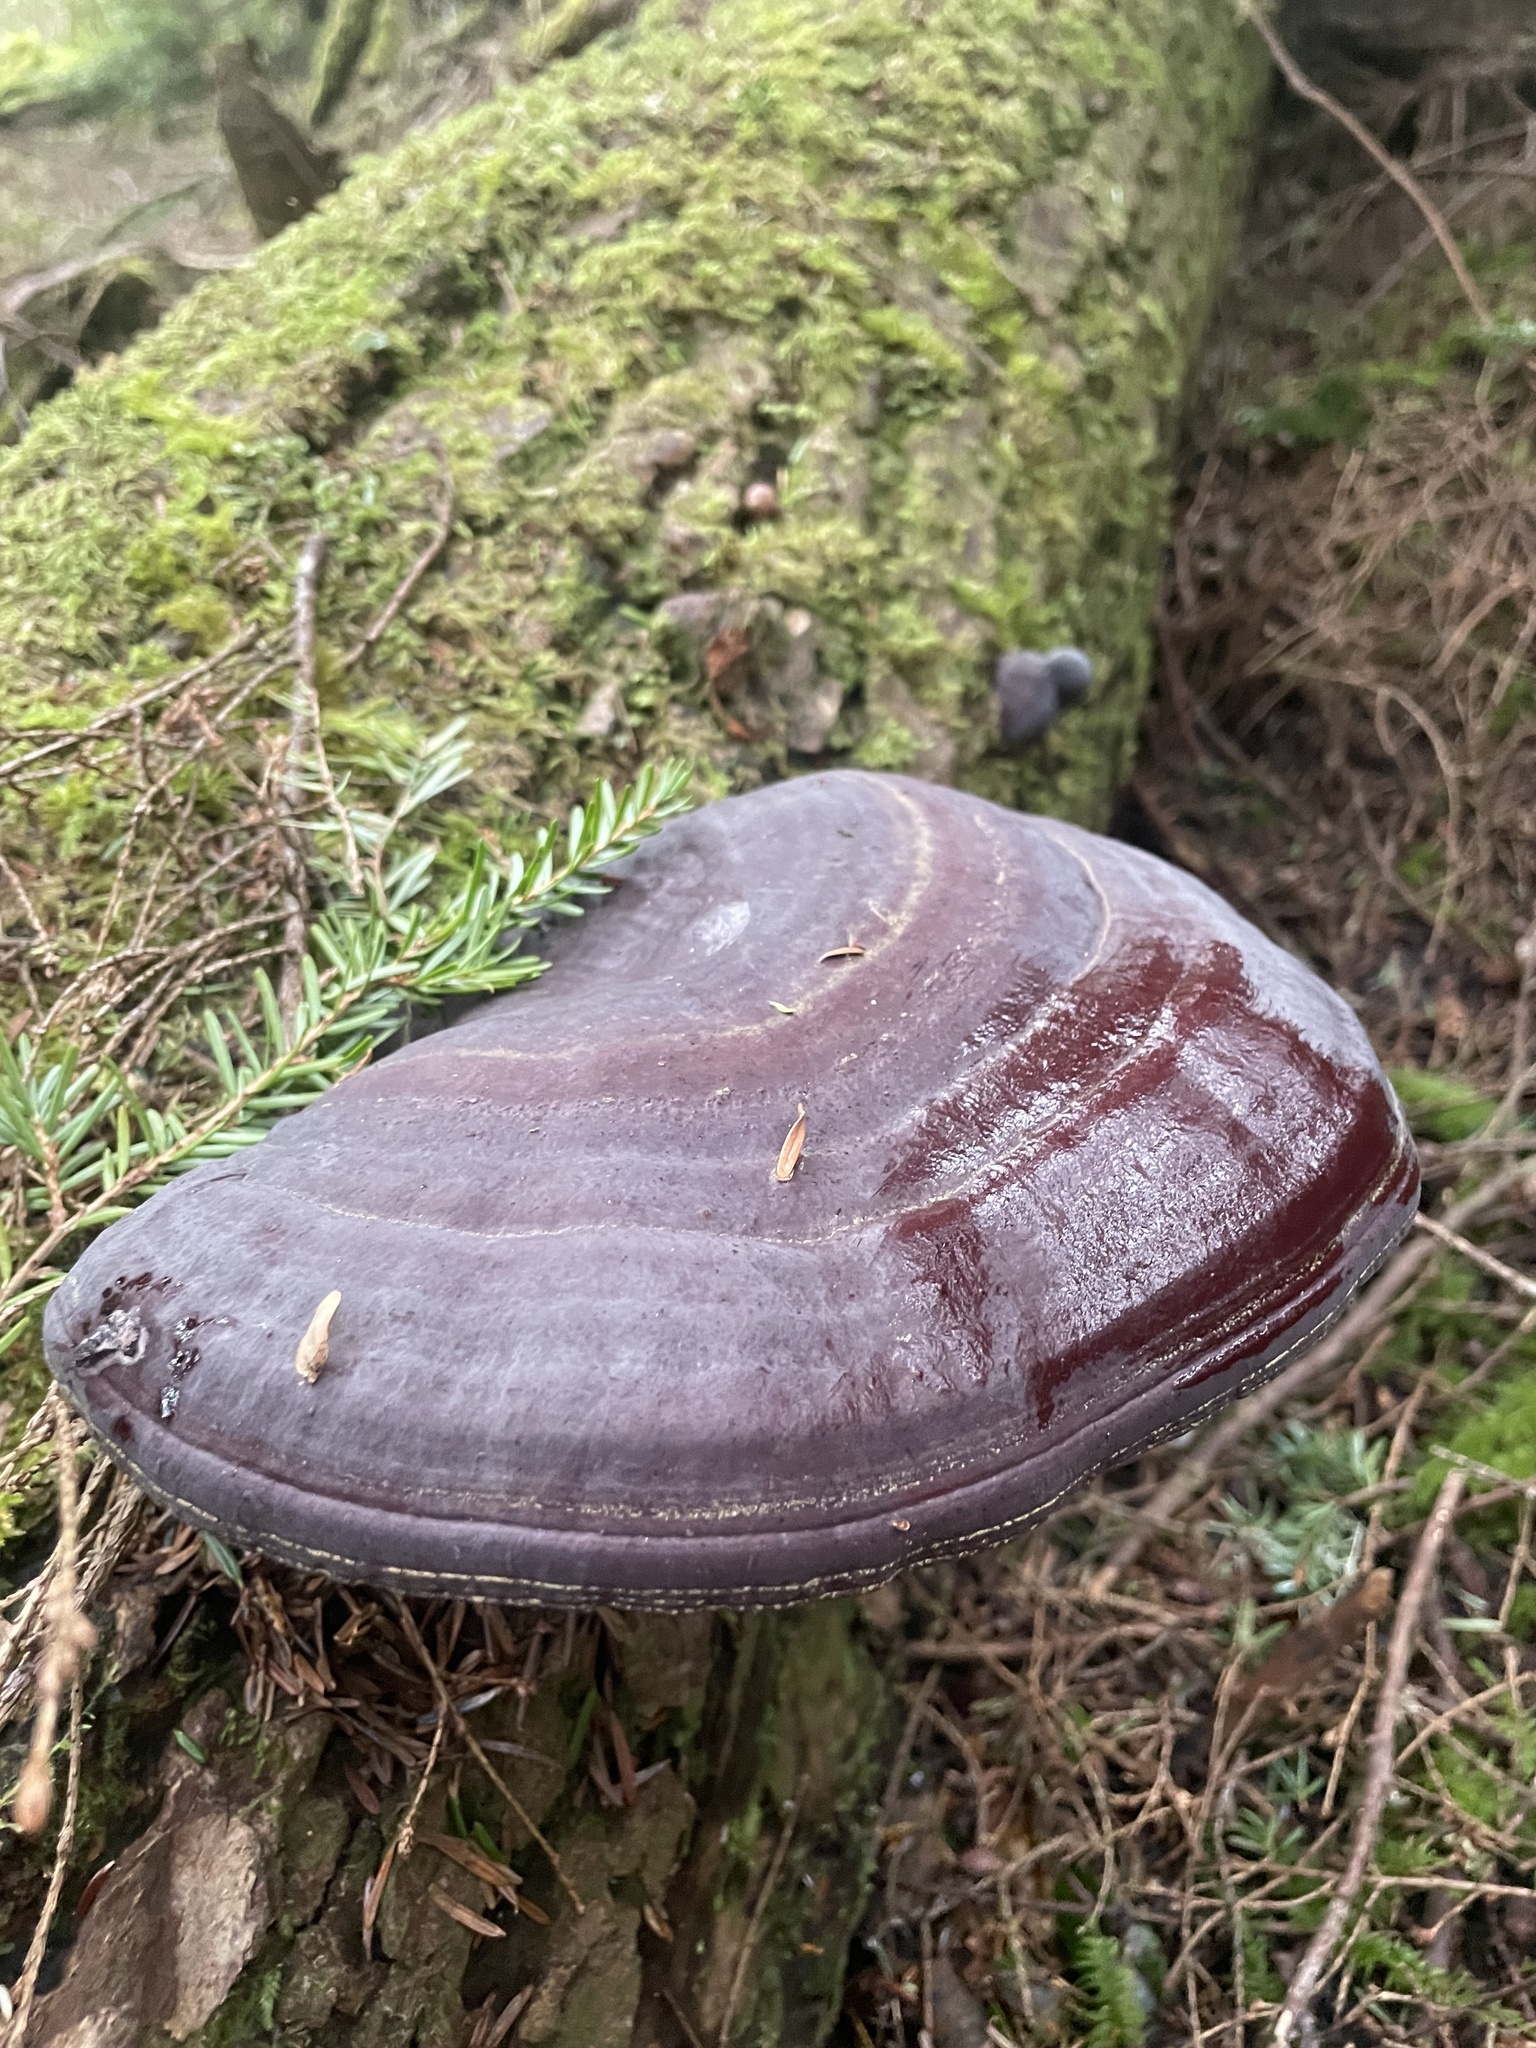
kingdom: Fungi
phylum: Basidiomycota
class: Agaricomycetes
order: Polyporales
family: Polyporaceae
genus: Ganoderma
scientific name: Ganoderma oregonense
